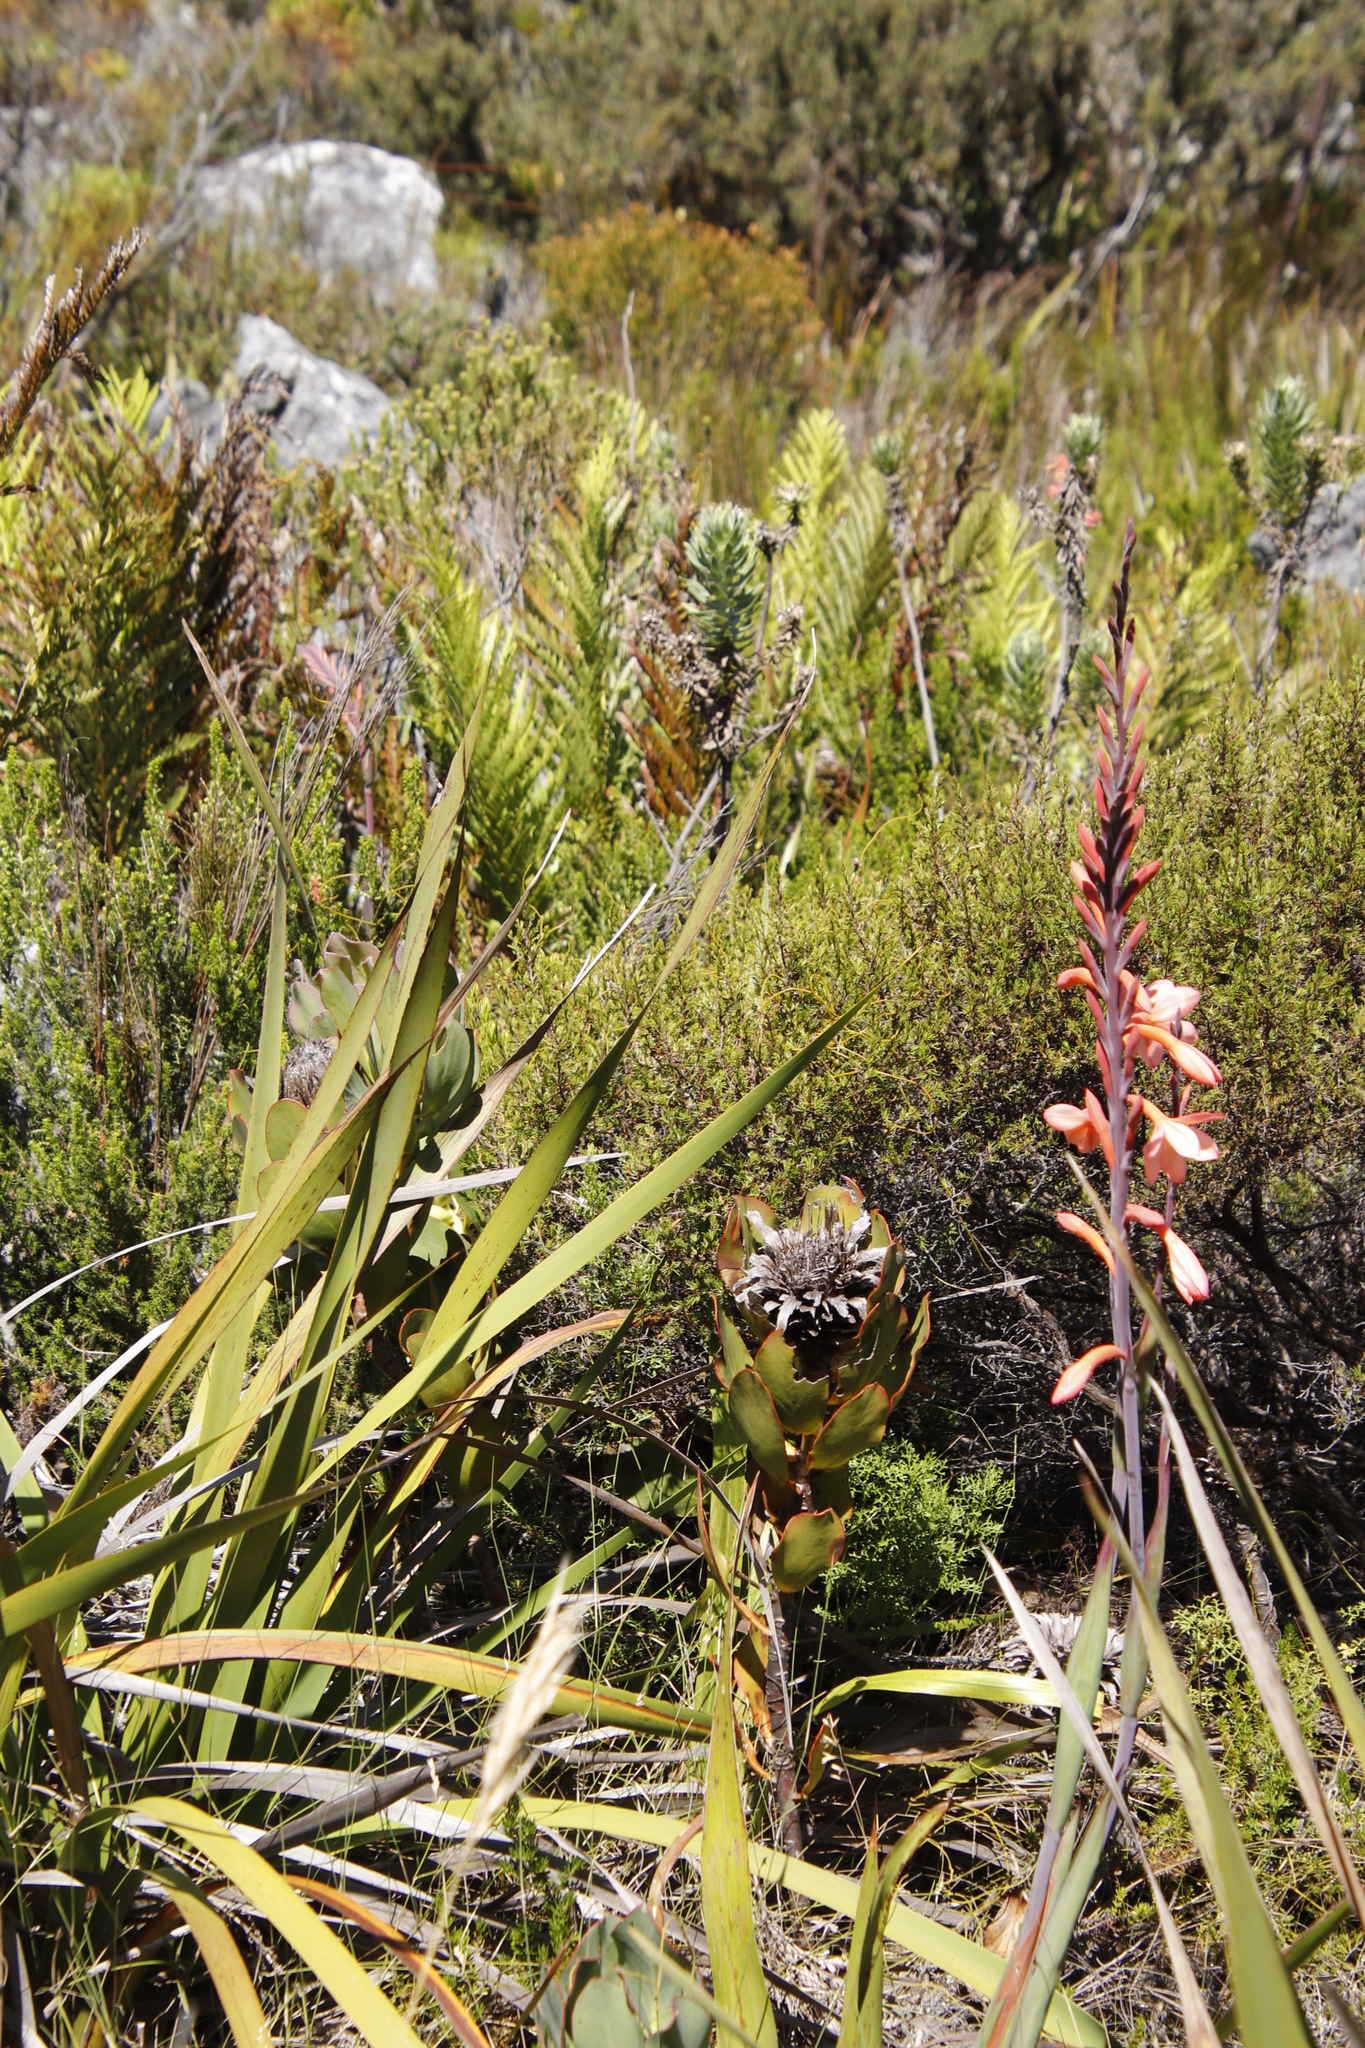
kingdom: Plantae
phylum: Tracheophyta
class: Magnoliopsida
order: Proteales
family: Proteaceae
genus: Protea
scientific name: Protea speciosa
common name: Brown-beard sugarbush
